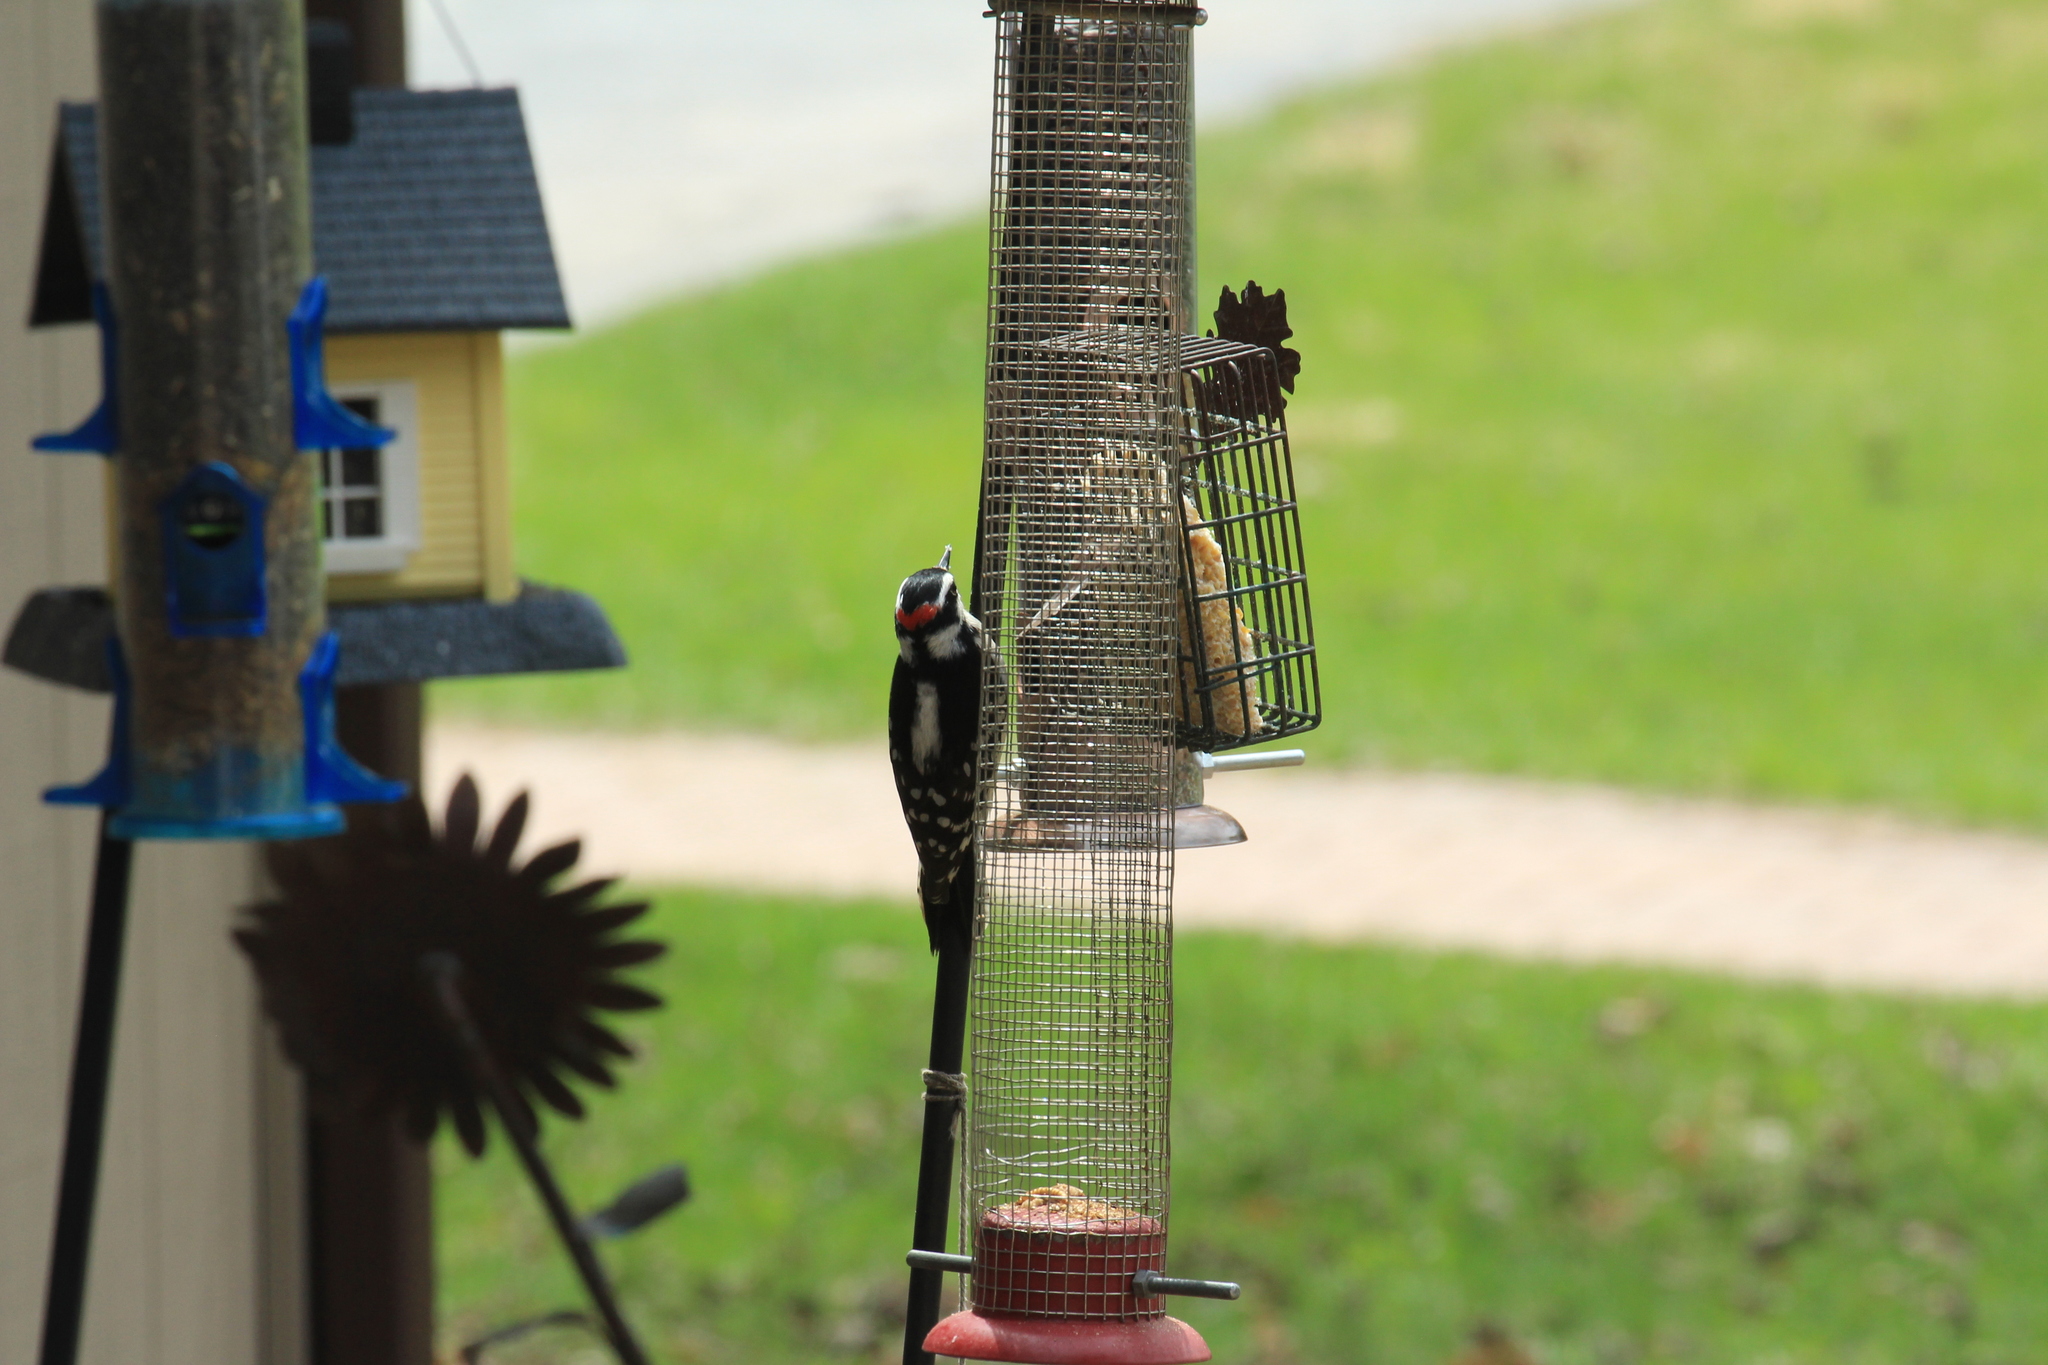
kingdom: Animalia
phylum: Chordata
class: Aves
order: Piciformes
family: Picidae
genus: Dryobates
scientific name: Dryobates pubescens
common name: Downy woodpecker
